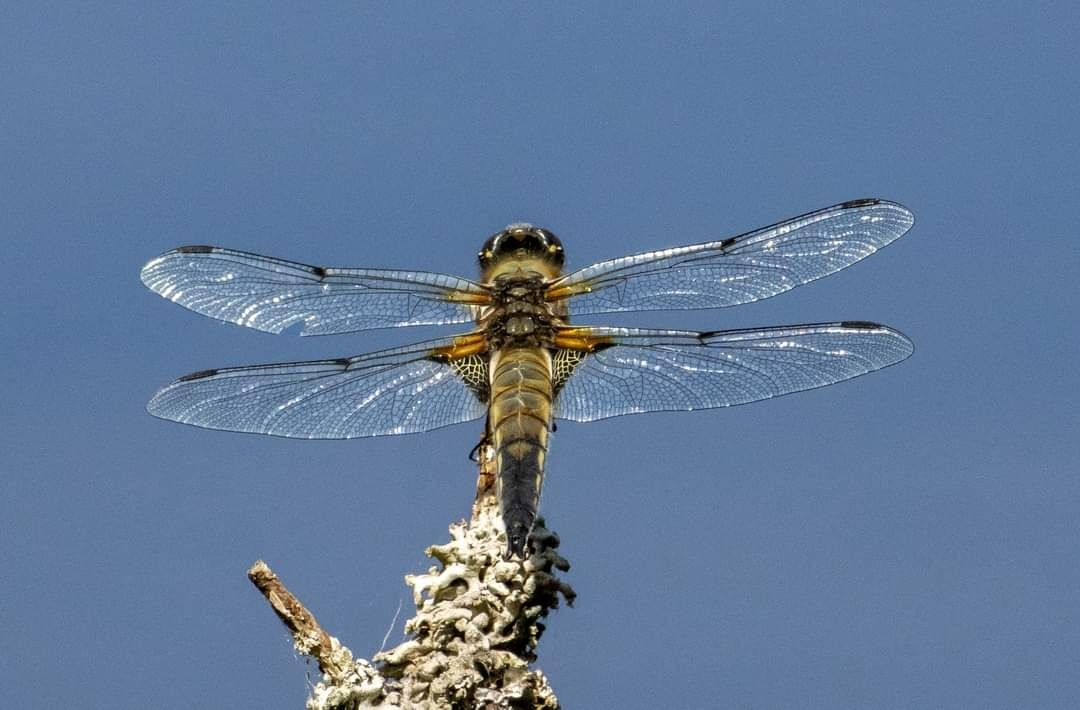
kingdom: Animalia
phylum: Arthropoda
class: Insecta
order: Odonata
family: Libellulidae
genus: Libellula
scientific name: Libellula quadrimaculata
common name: Four-spotted chaser
